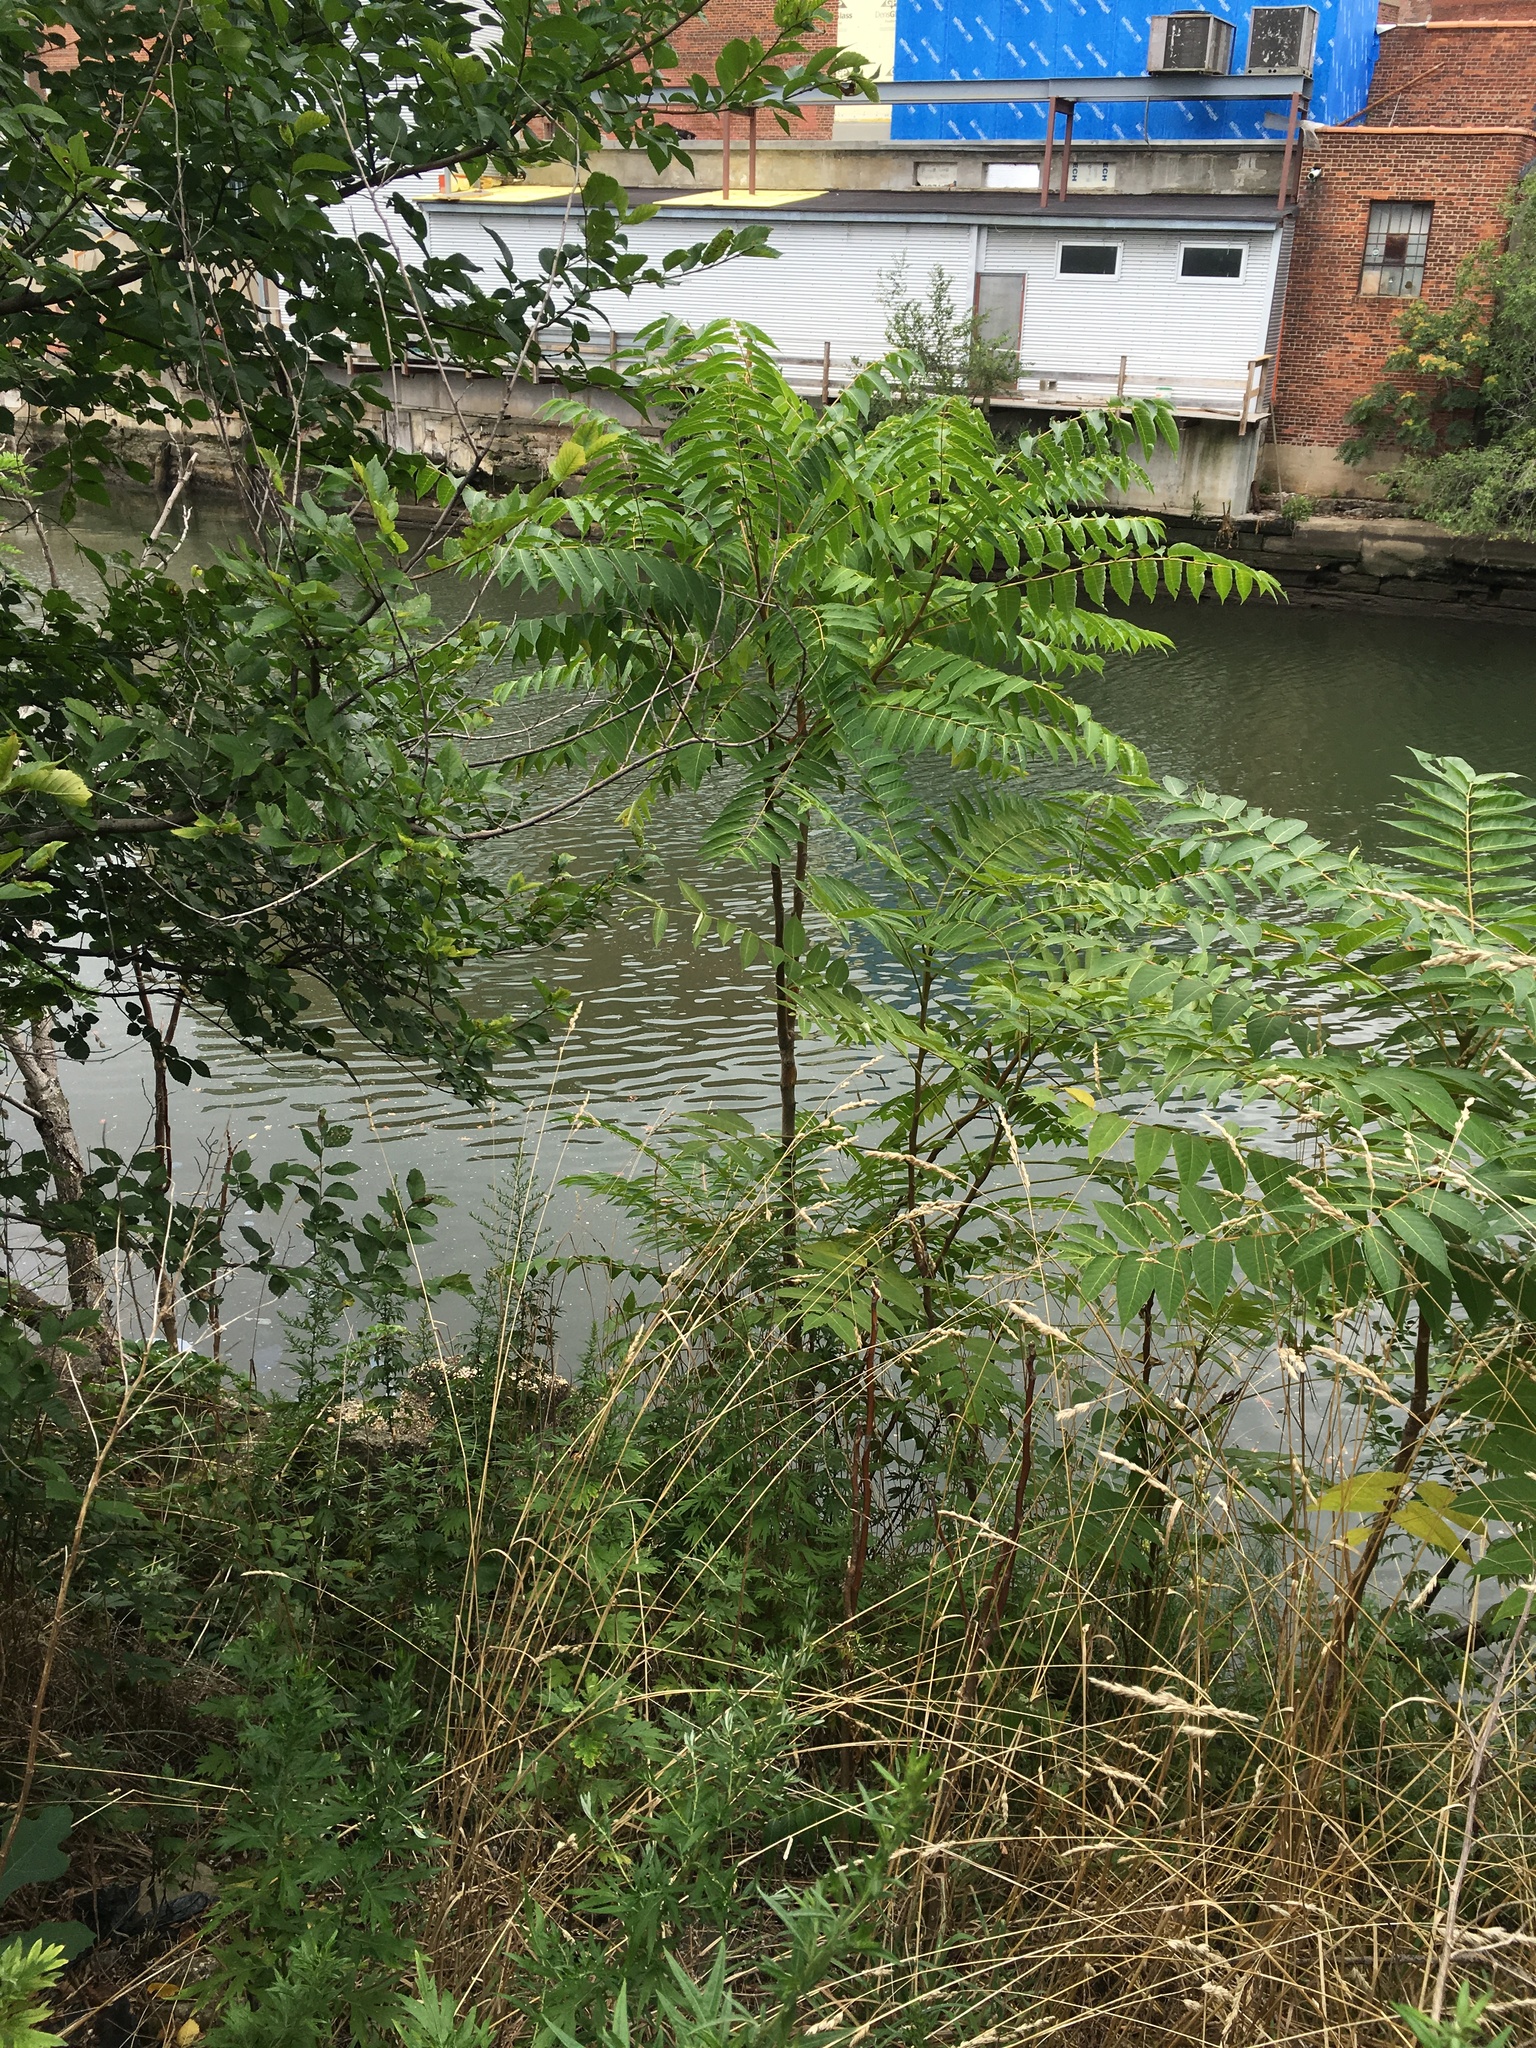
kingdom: Plantae
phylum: Tracheophyta
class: Magnoliopsida
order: Sapindales
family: Simaroubaceae
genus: Ailanthus
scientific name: Ailanthus altissima
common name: Tree-of-heaven
